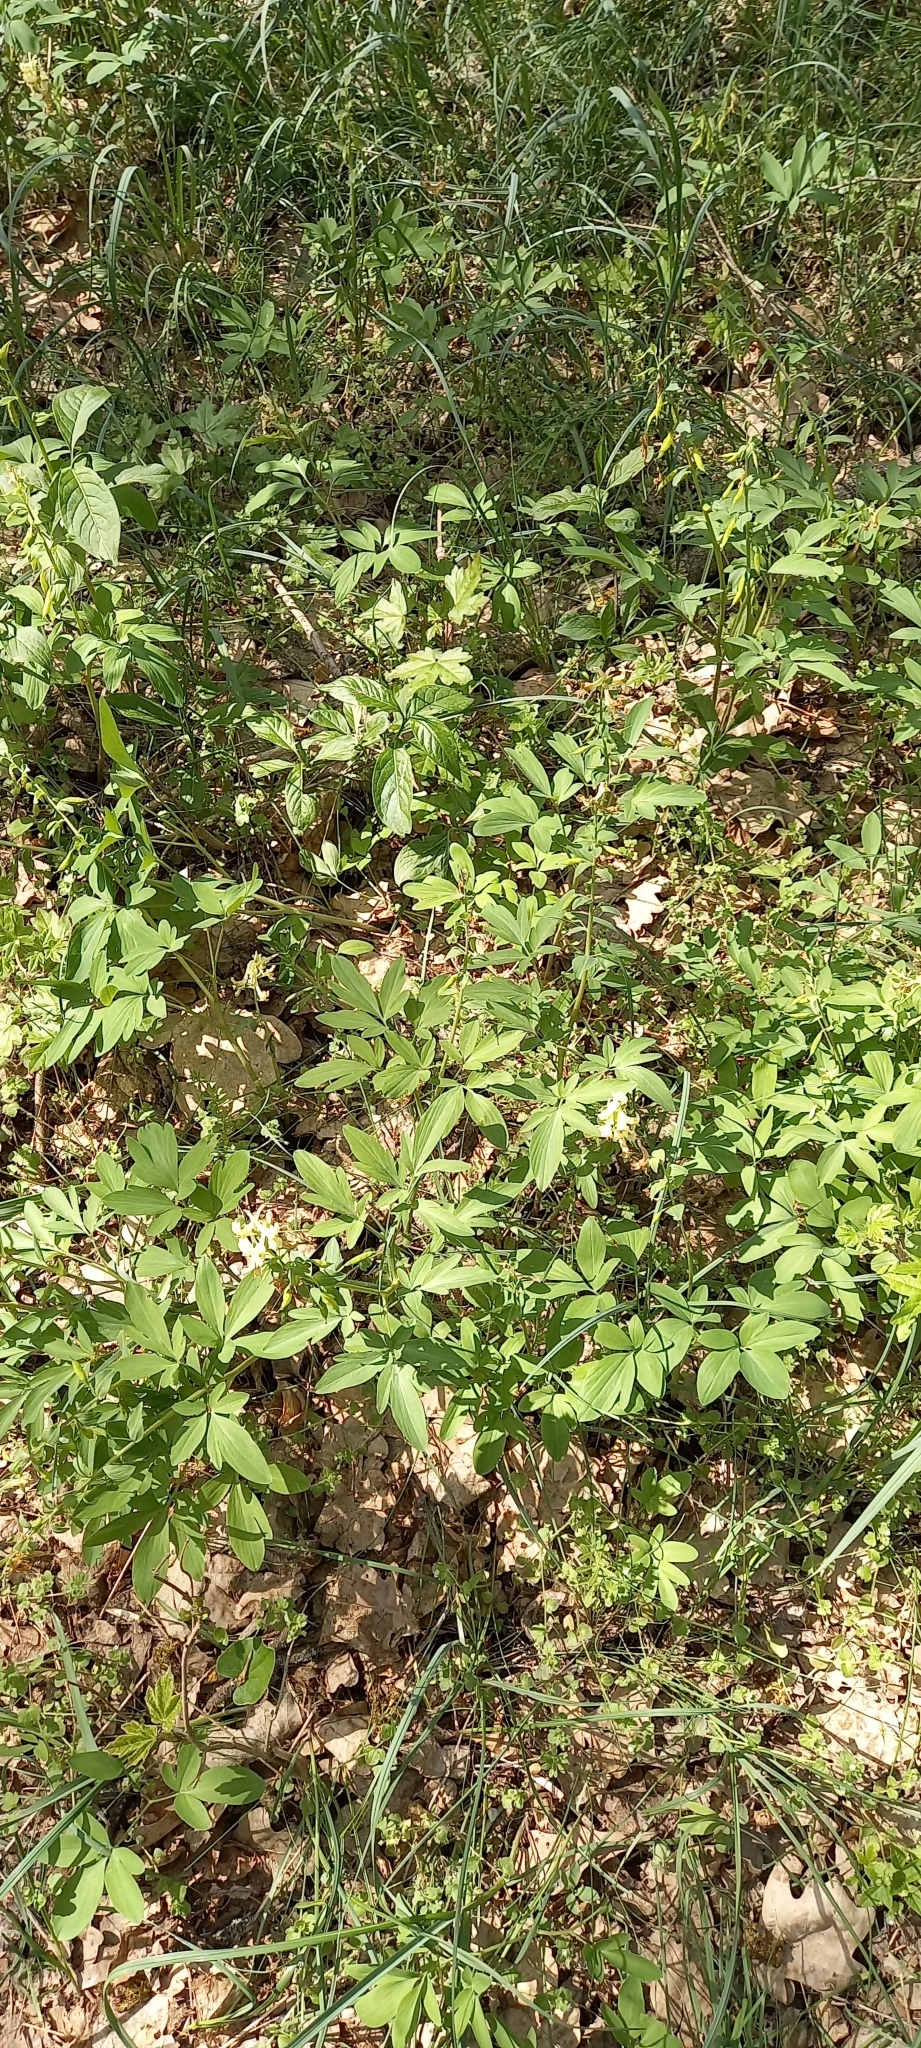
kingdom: Plantae
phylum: Tracheophyta
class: Magnoliopsida
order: Ranunculales
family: Papaveraceae
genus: Corydalis
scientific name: Corydalis cava
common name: Hollowroot
